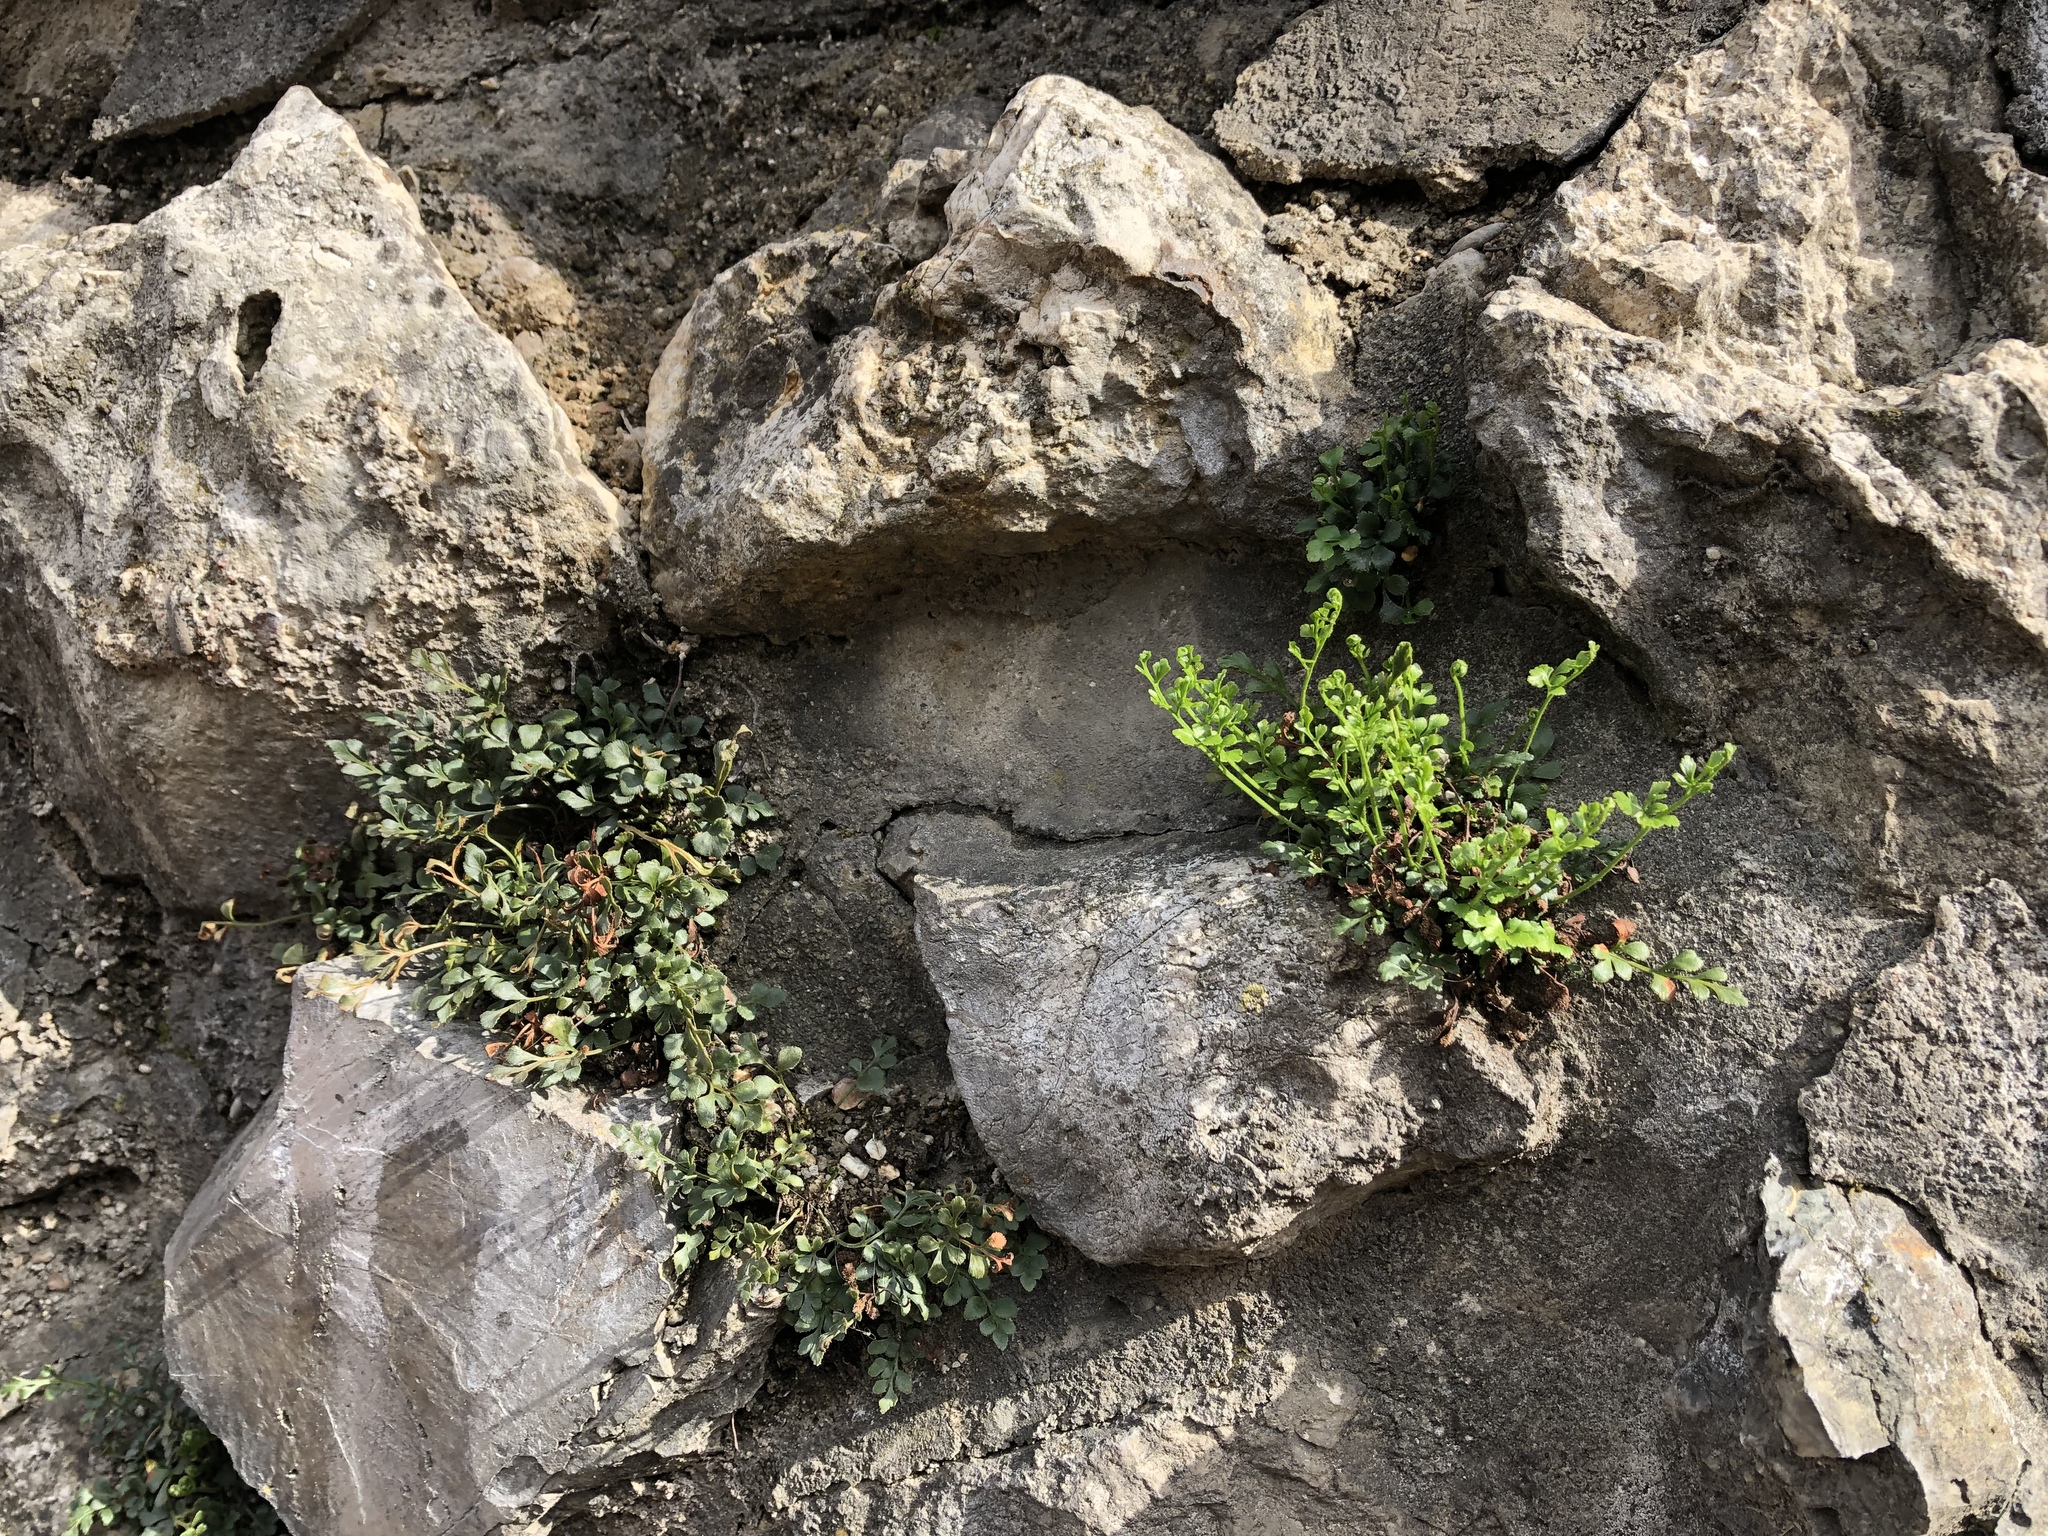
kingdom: Plantae
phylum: Tracheophyta
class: Polypodiopsida
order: Polypodiales
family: Aspleniaceae
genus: Asplenium
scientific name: Asplenium ruta-muraria
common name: Wall-rue
